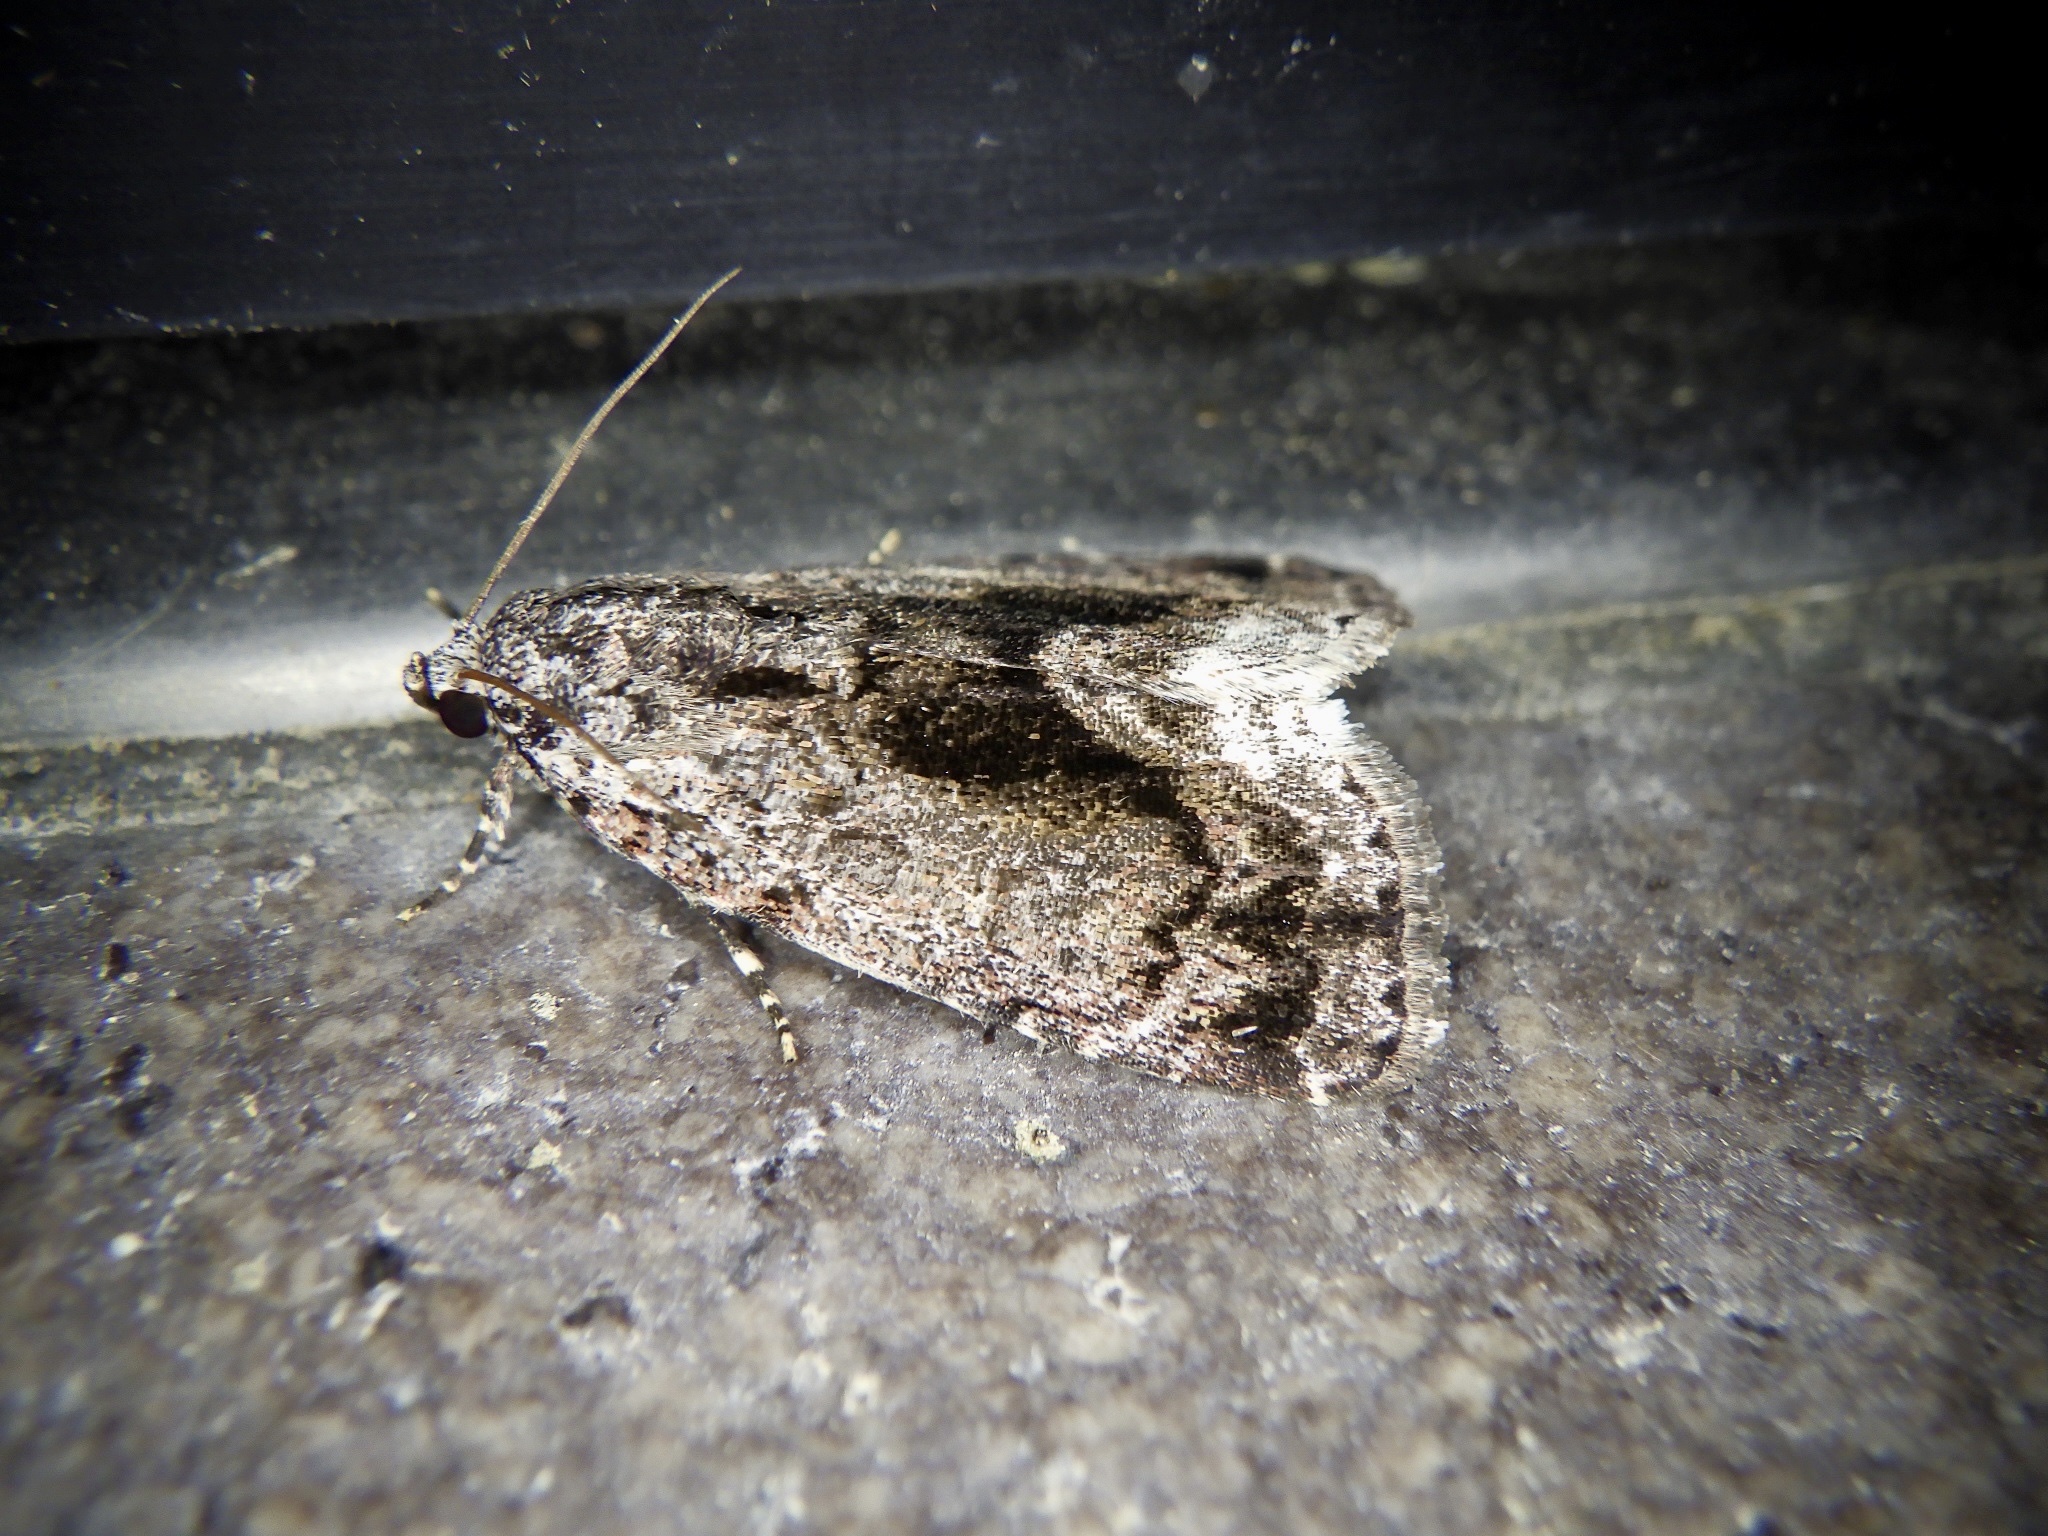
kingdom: Animalia
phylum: Arthropoda
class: Insecta
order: Lepidoptera
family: Noctuidae
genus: Iambia
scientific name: Iambia japonica
